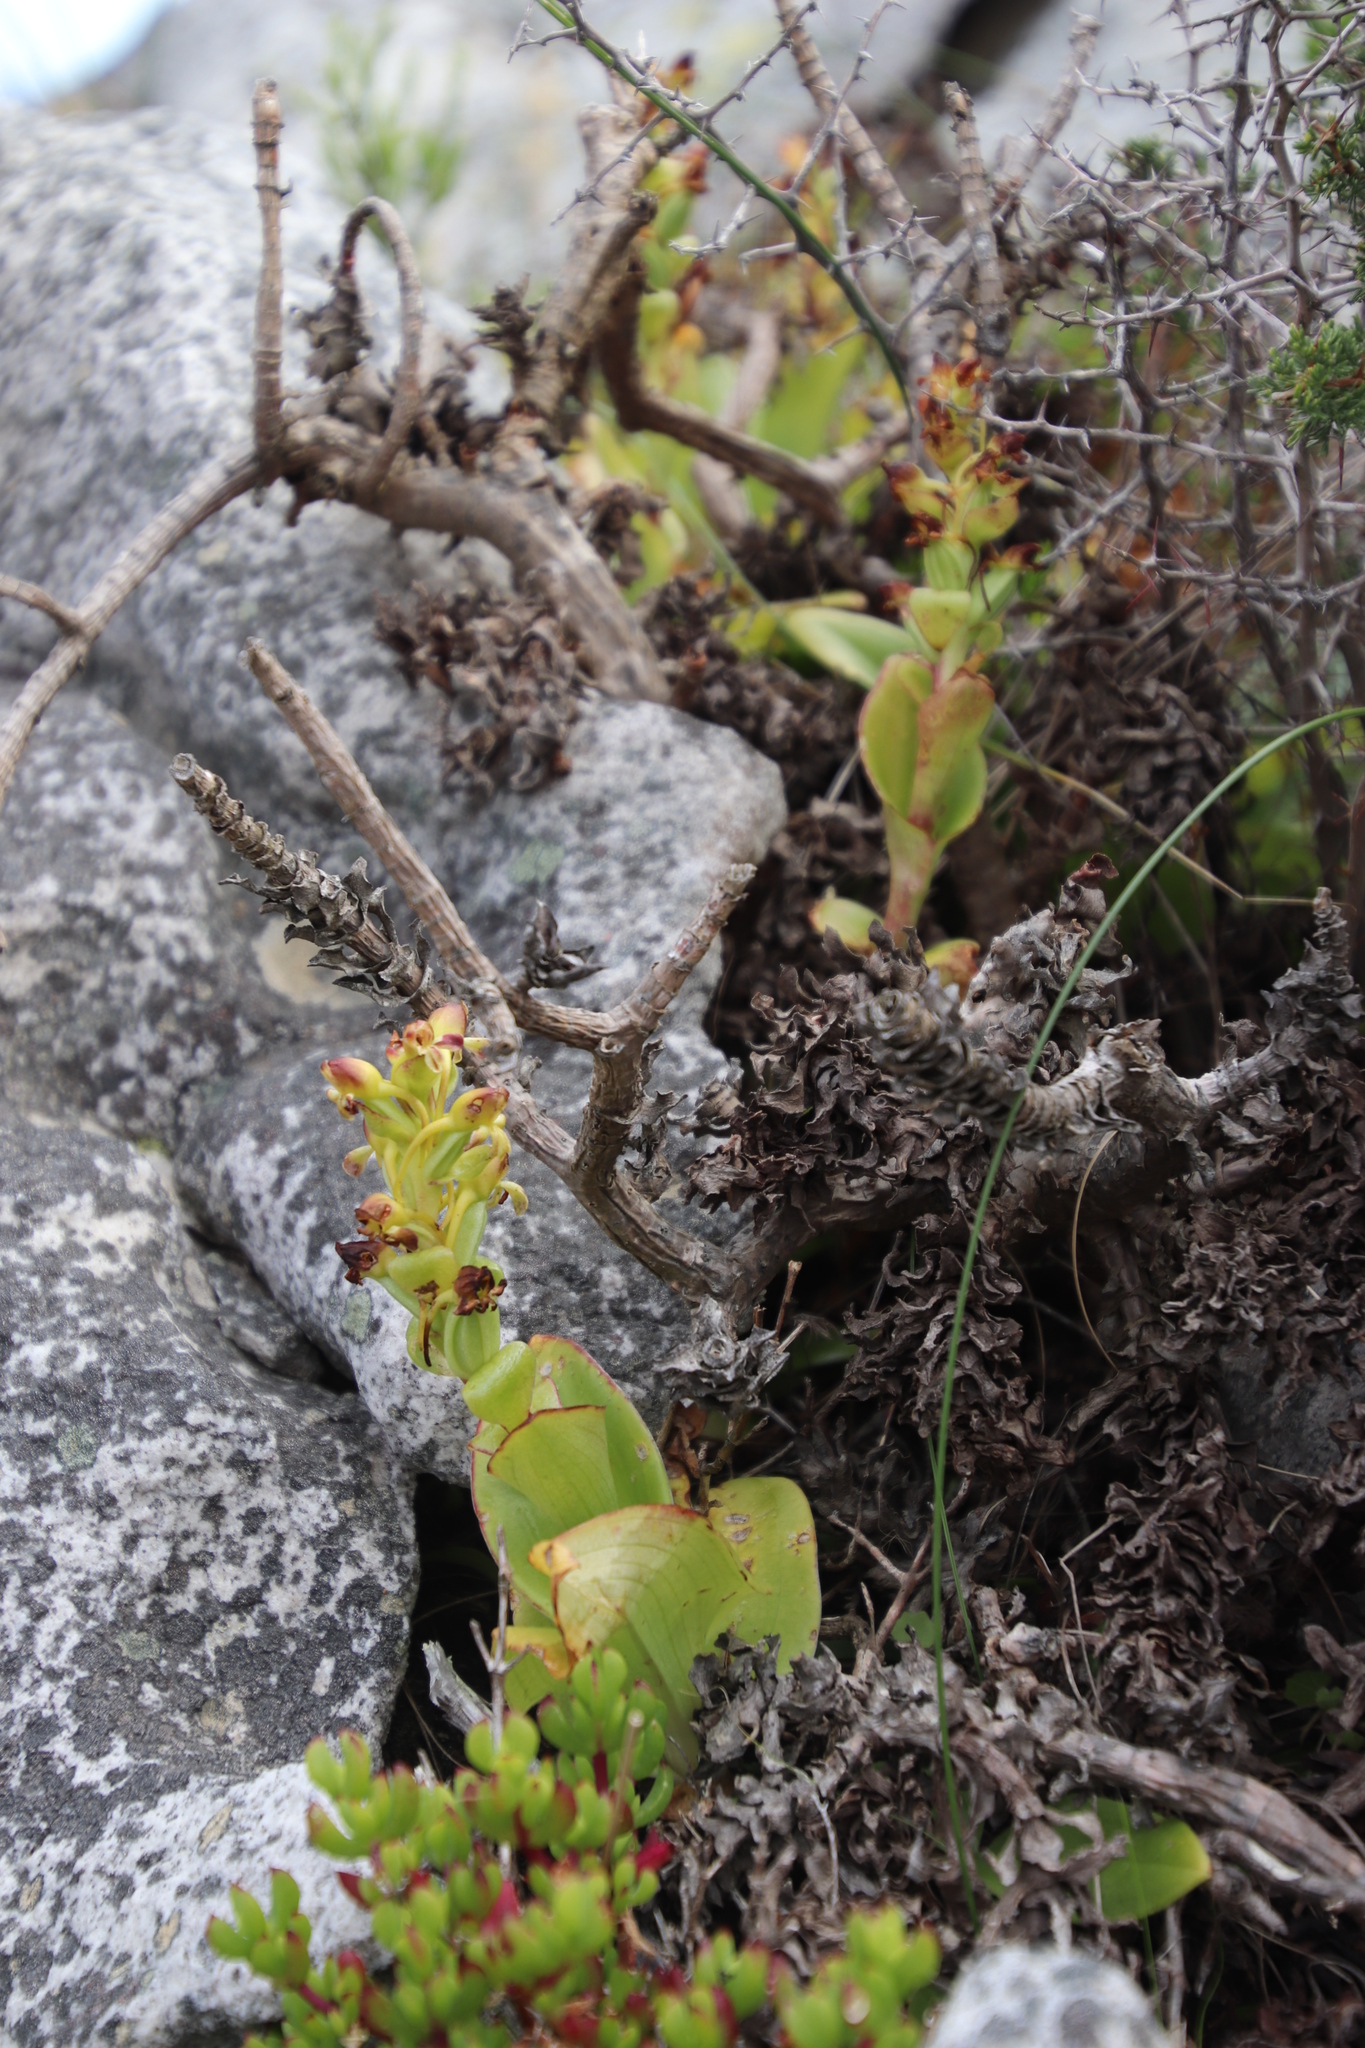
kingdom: Plantae
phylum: Tracheophyta
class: Liliopsida
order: Asparagales
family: Orchidaceae
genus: Satyrium
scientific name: Satyrium odorum
